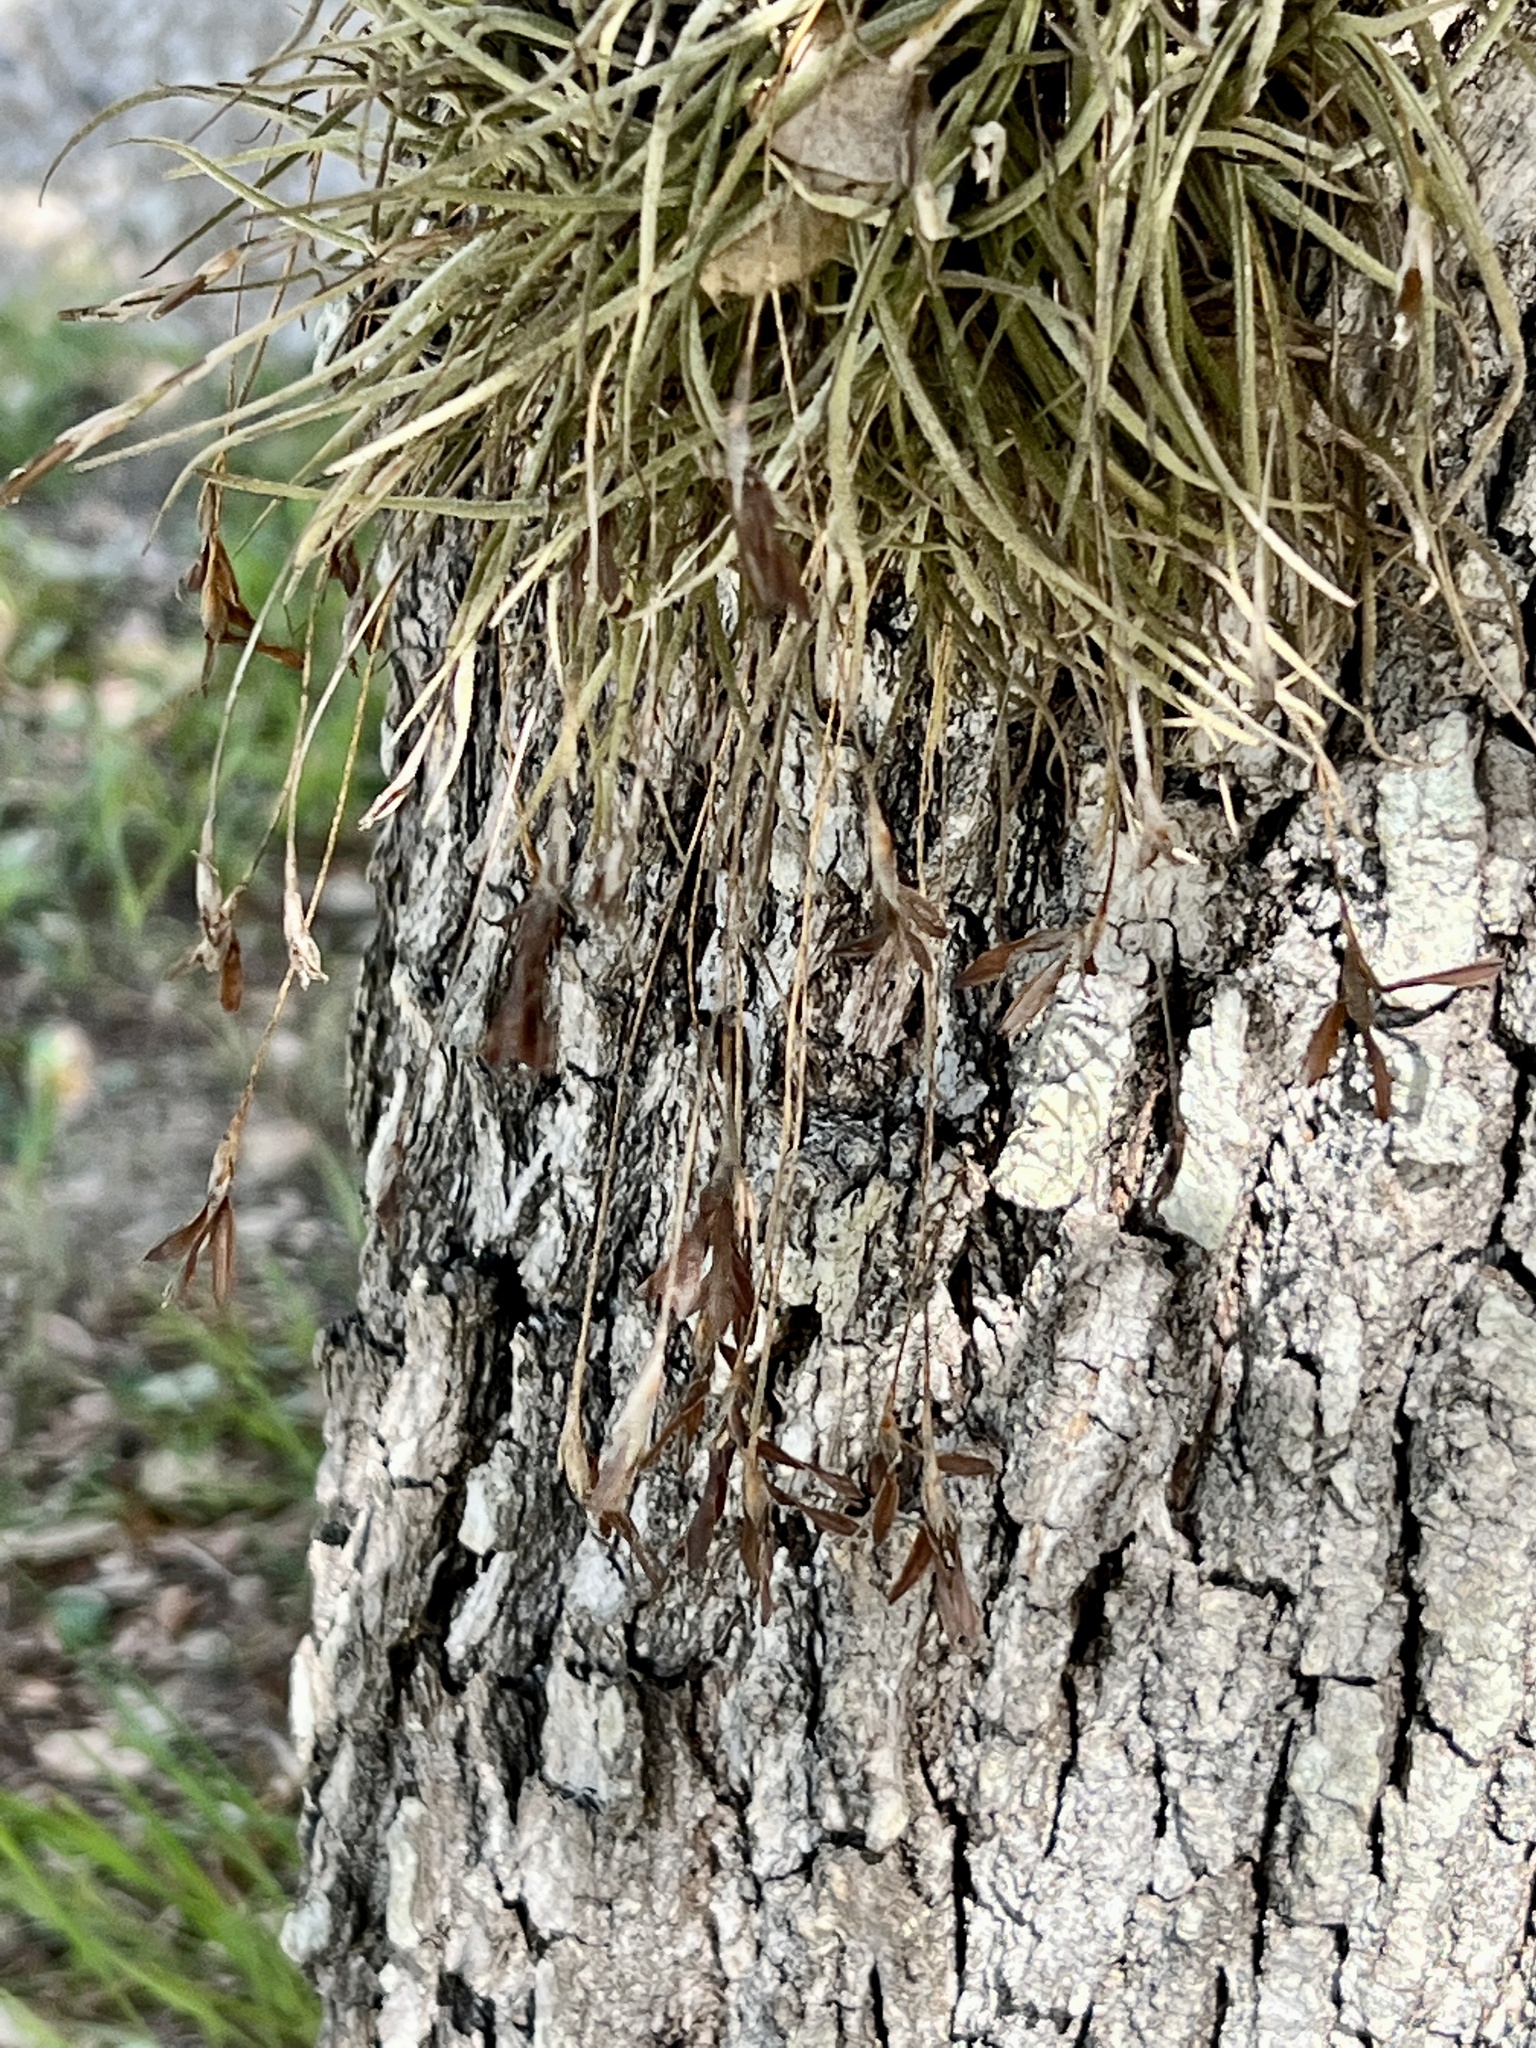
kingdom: Plantae
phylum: Tracheophyta
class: Liliopsida
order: Poales
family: Bromeliaceae
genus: Tillandsia
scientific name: Tillandsia recurvata
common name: Small ballmoss
